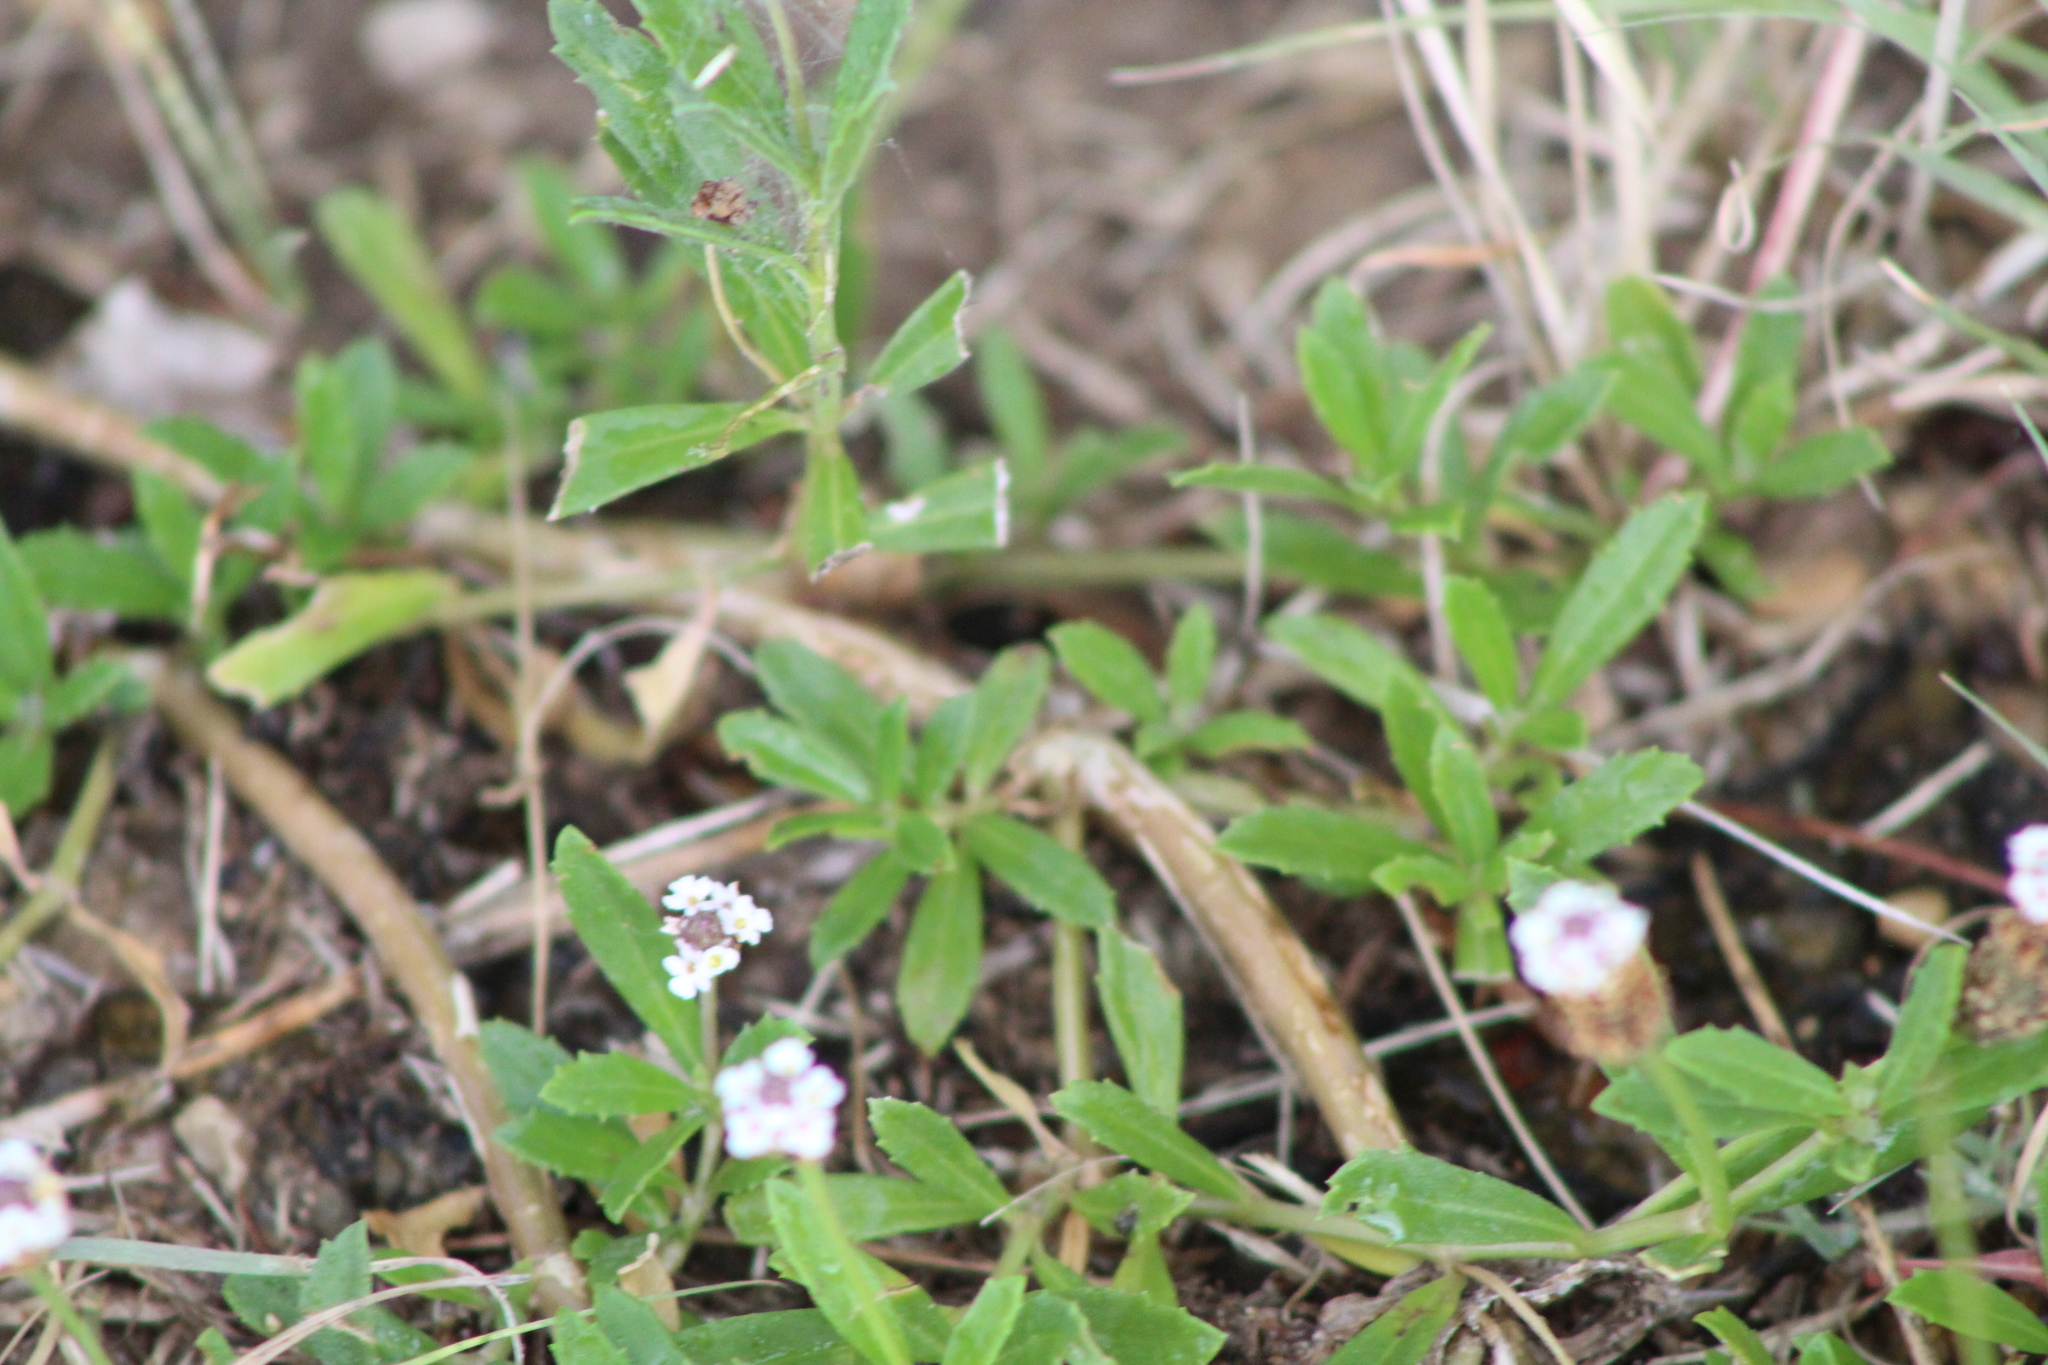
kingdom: Plantae
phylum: Tracheophyta
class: Magnoliopsida
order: Lamiales
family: Verbenaceae
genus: Phyla
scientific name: Phyla nodiflora
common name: Frogfruit
